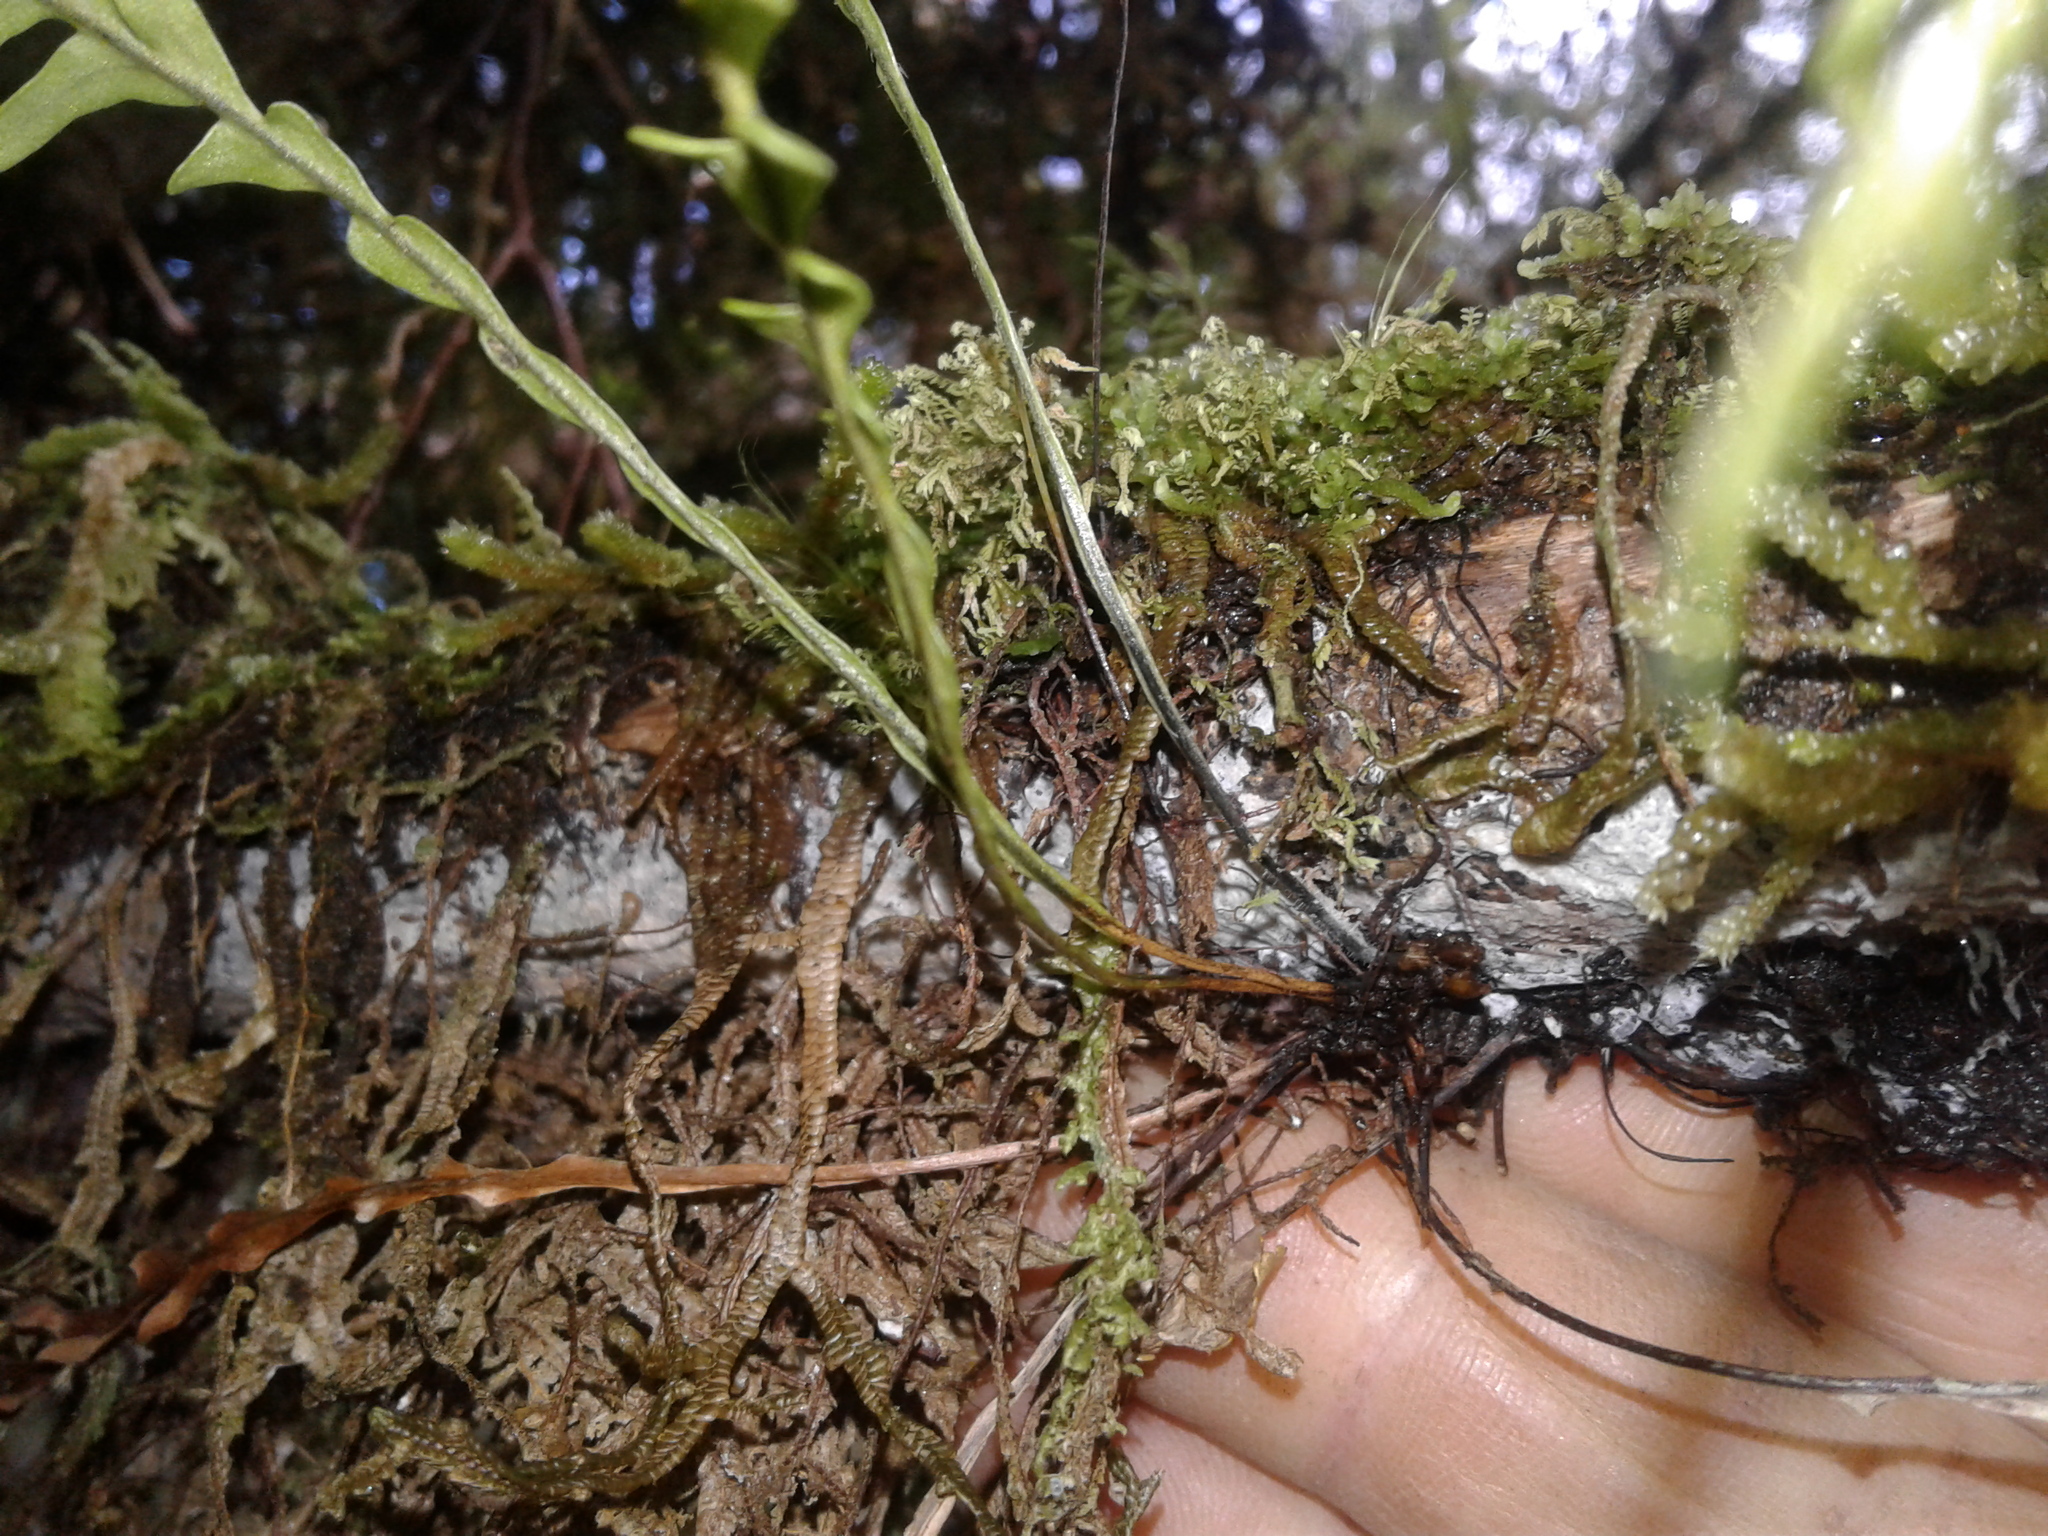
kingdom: Plantae
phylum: Tracheophyta
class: Polypodiopsida
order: Polypodiales
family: Polypodiaceae
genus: Notogrammitis
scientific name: Notogrammitis heterophylla
